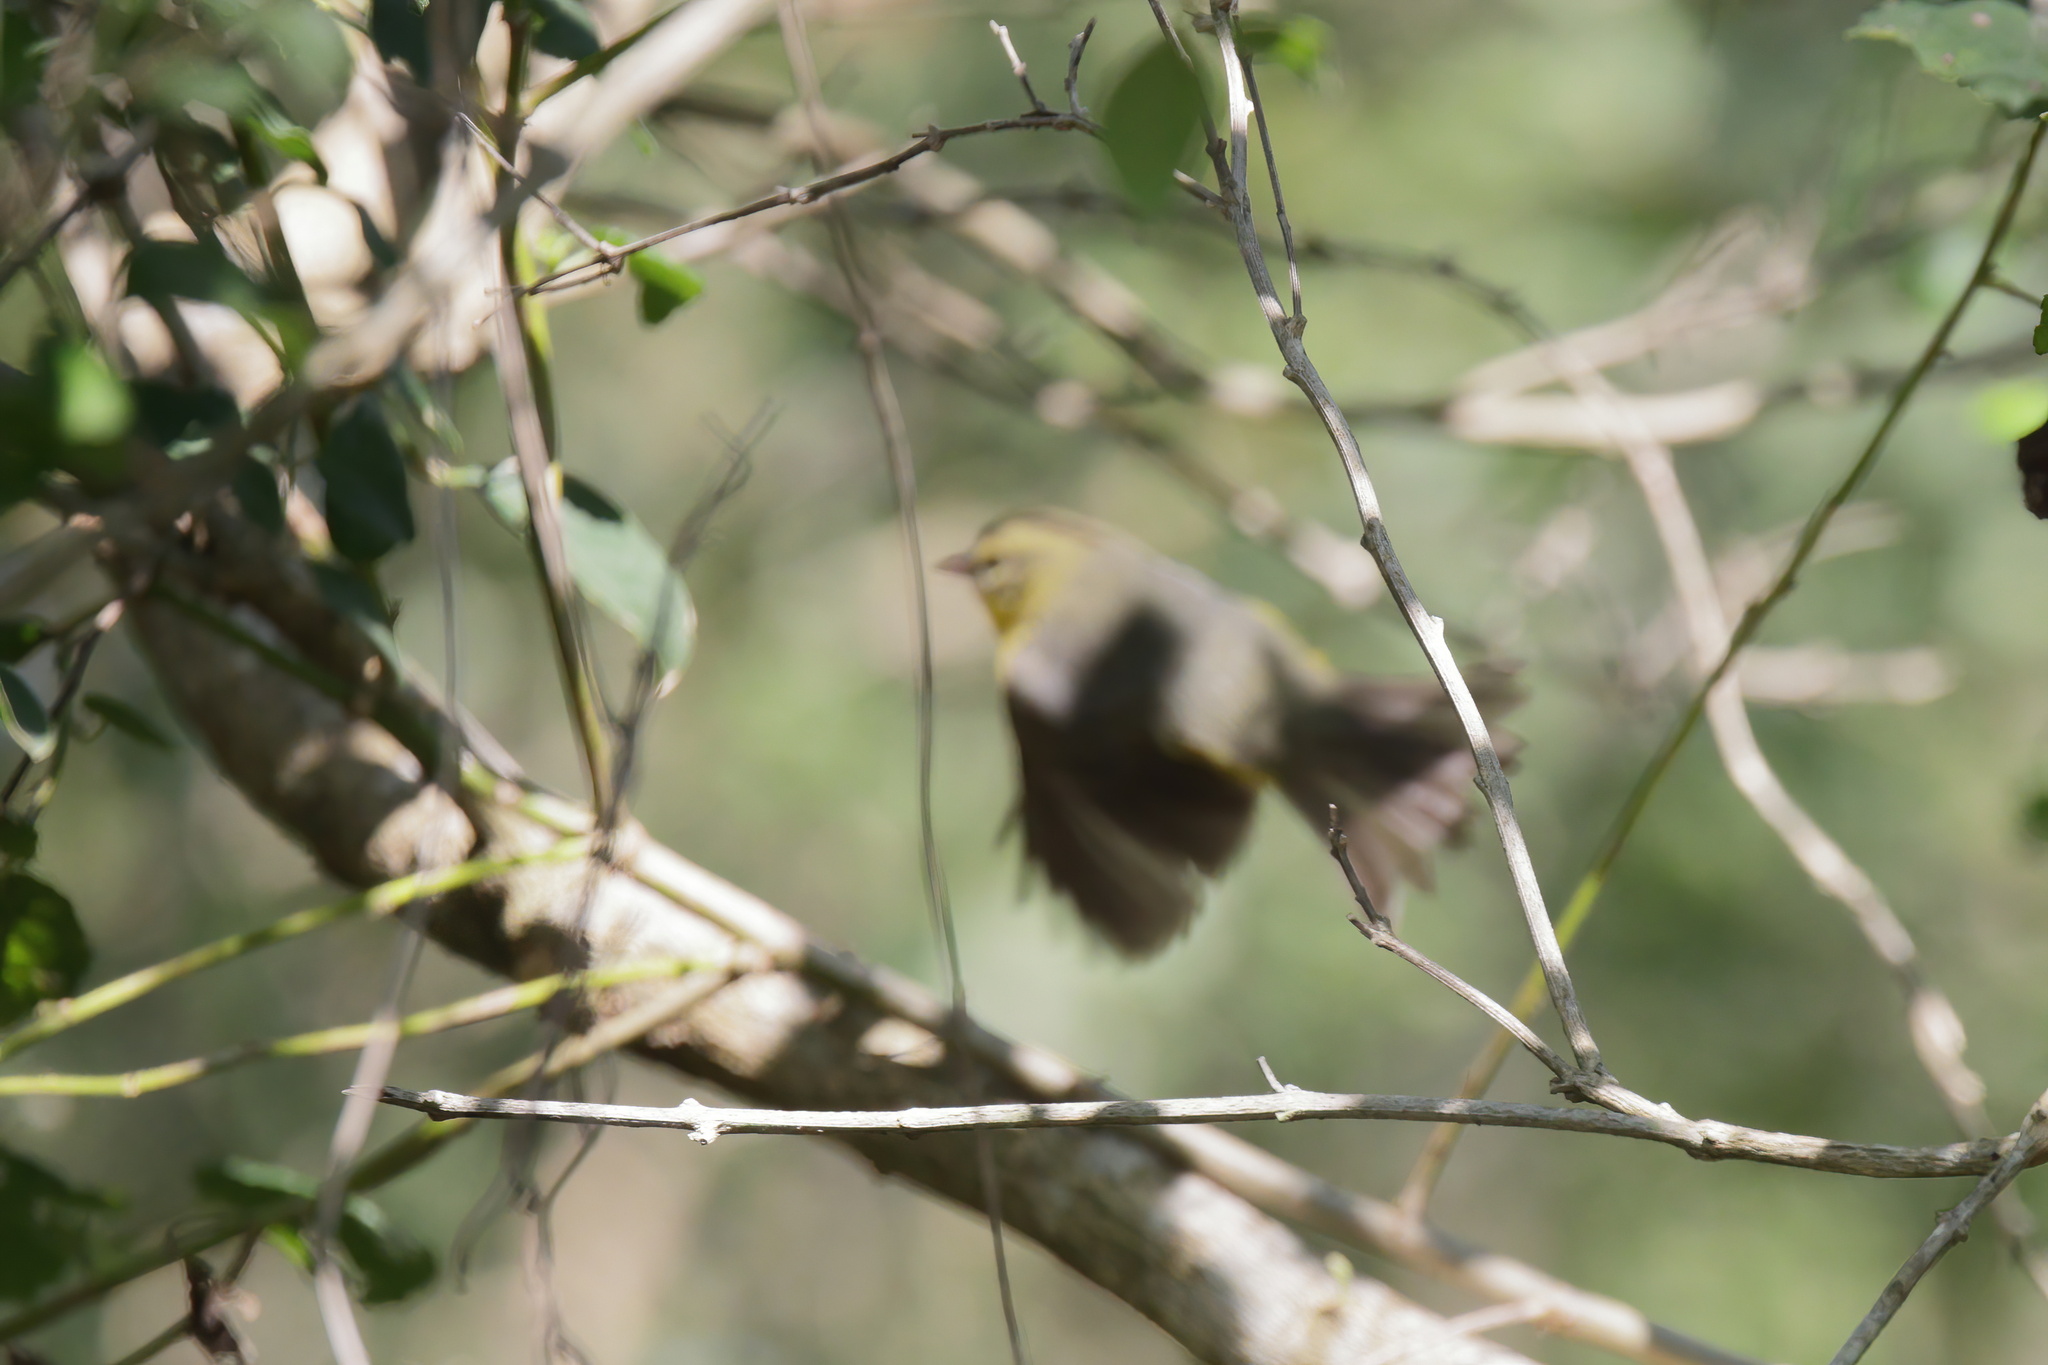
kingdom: Animalia
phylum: Chordata
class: Aves
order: Passeriformes
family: Parulidae
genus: Basileuterus
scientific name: Basileuterus culicivorus
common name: Golden-crowned warbler
